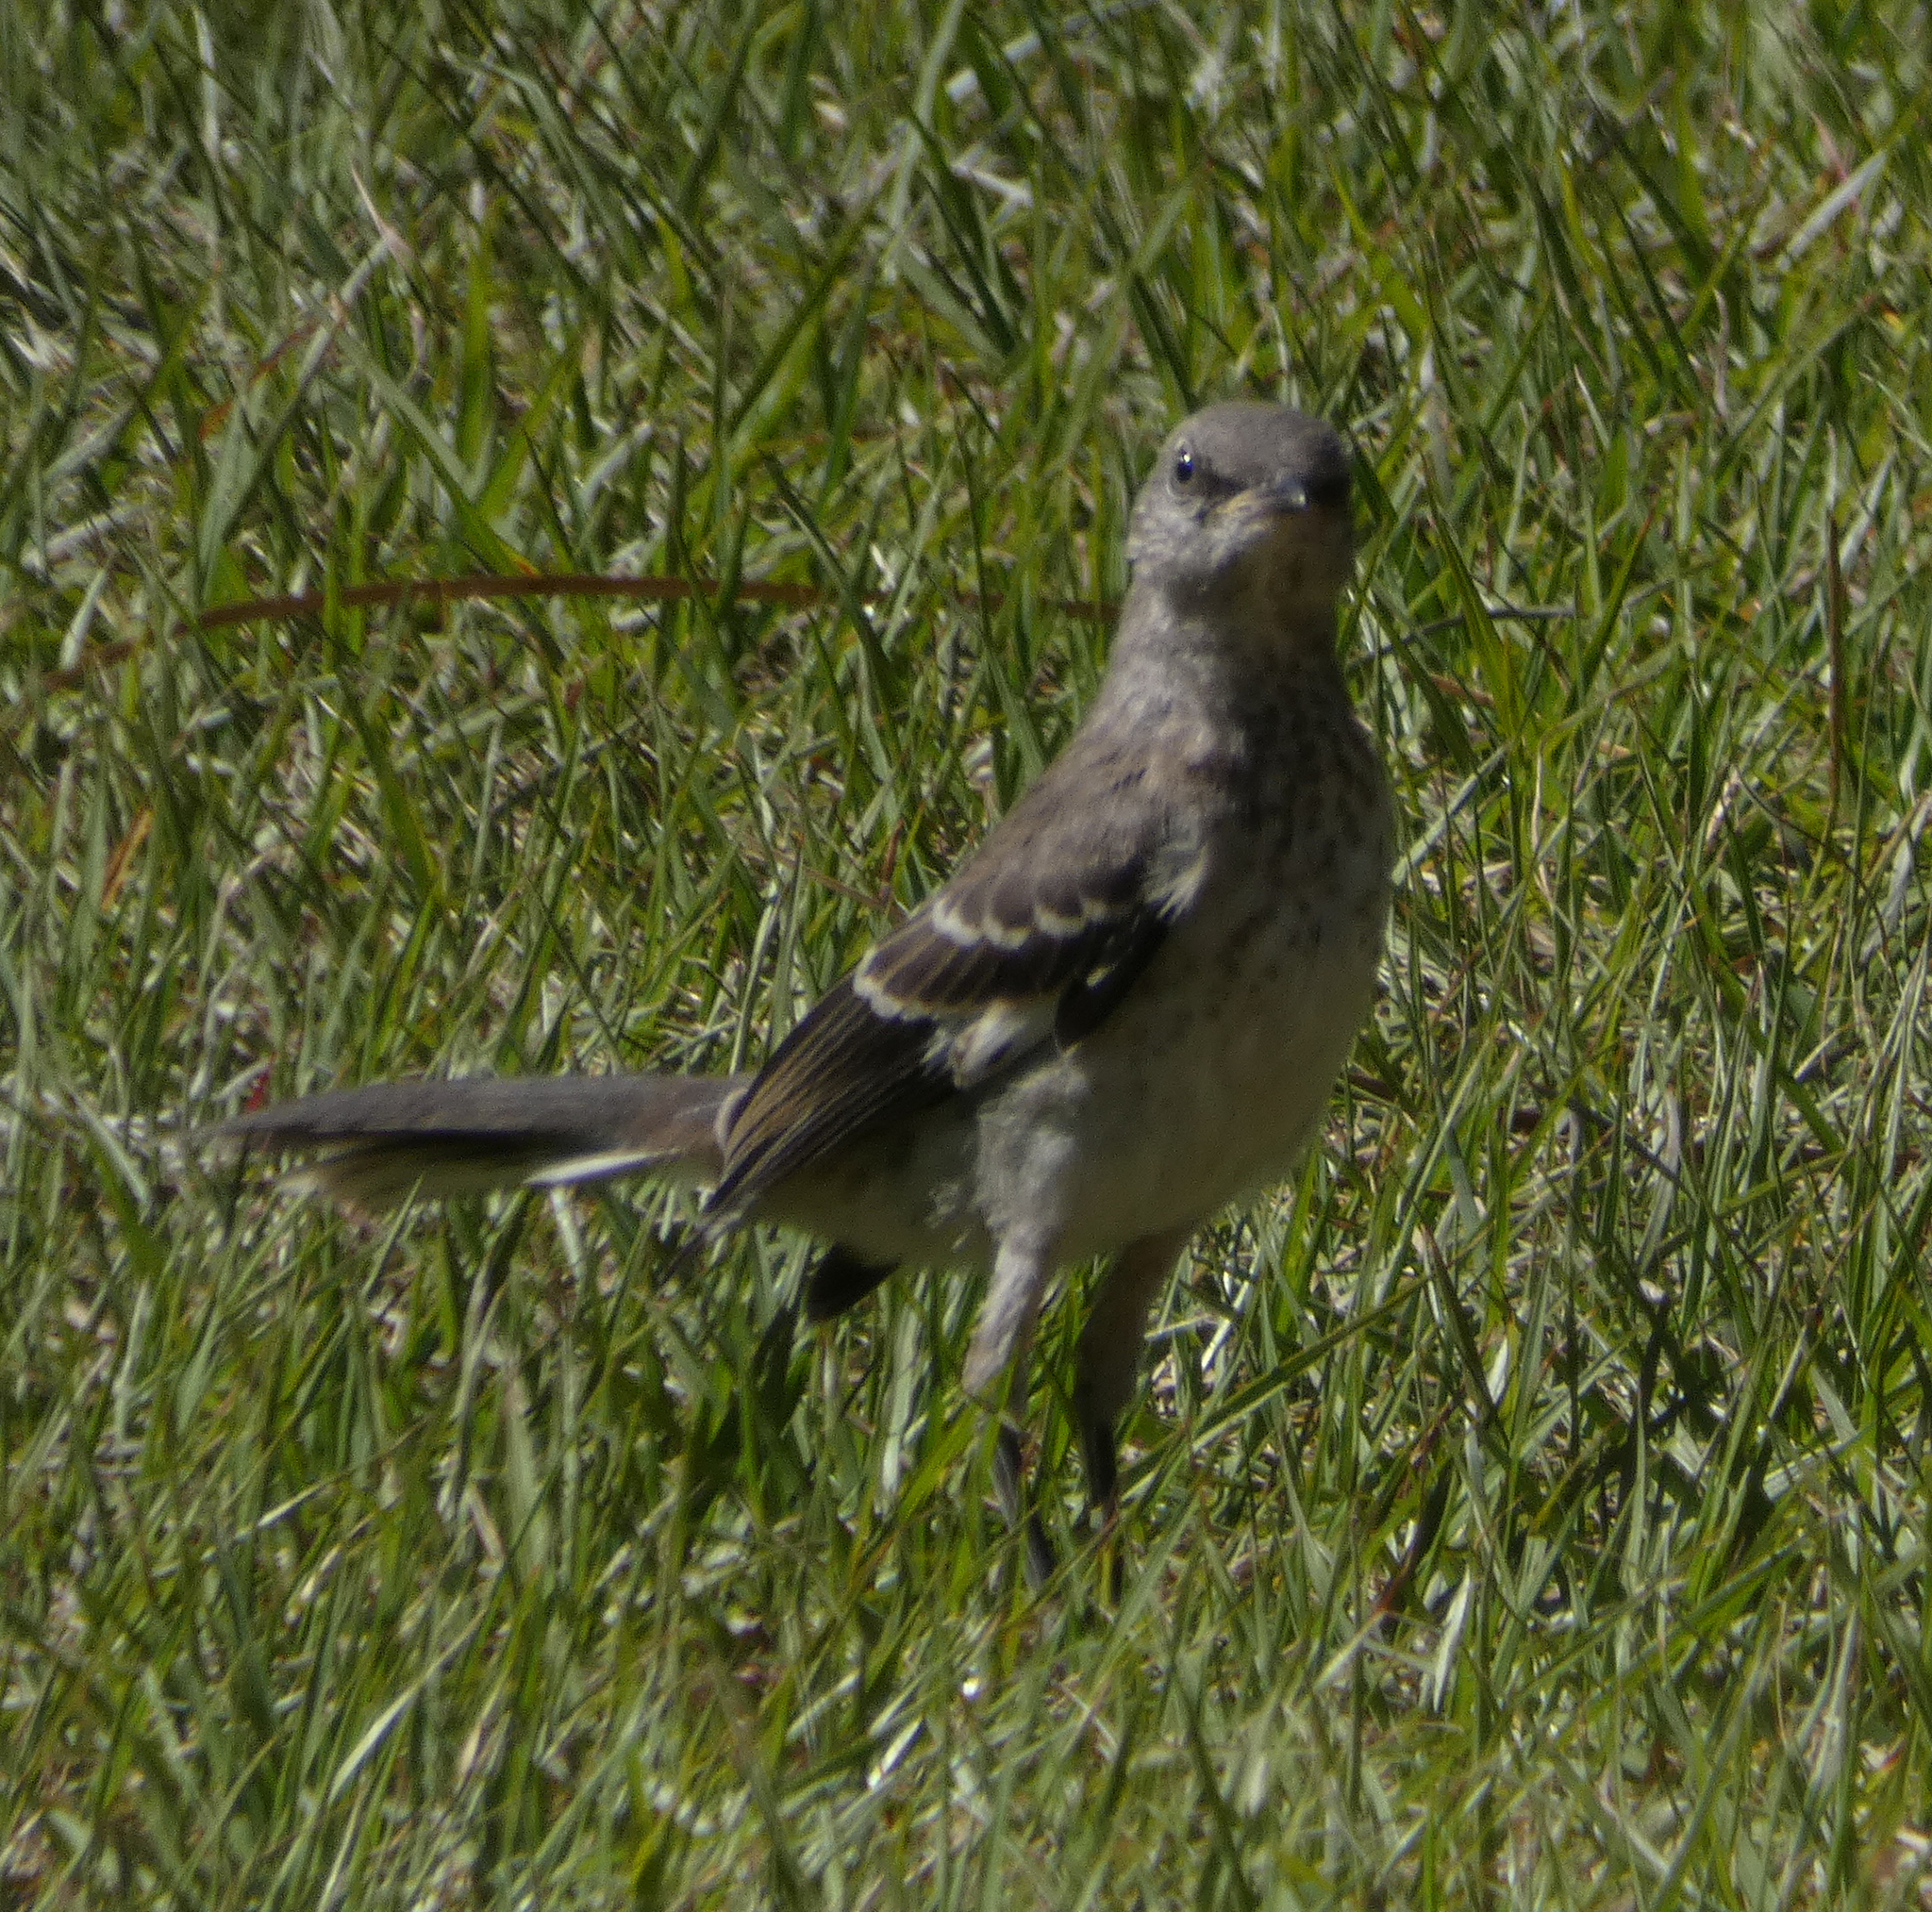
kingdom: Animalia
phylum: Chordata
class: Aves
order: Passeriformes
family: Mimidae
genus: Mimus
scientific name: Mimus polyglottos
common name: Northern mockingbird
